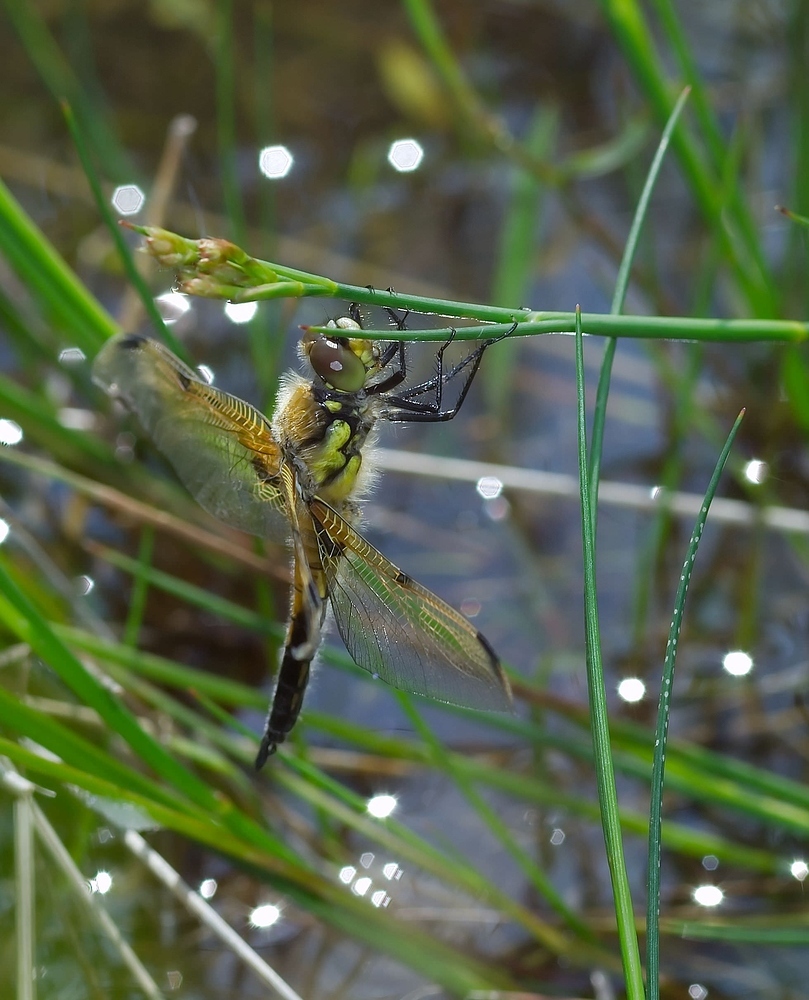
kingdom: Animalia
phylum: Arthropoda
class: Insecta
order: Odonata
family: Libellulidae
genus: Libellula
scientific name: Libellula quadrimaculata
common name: Four-spotted chaser
